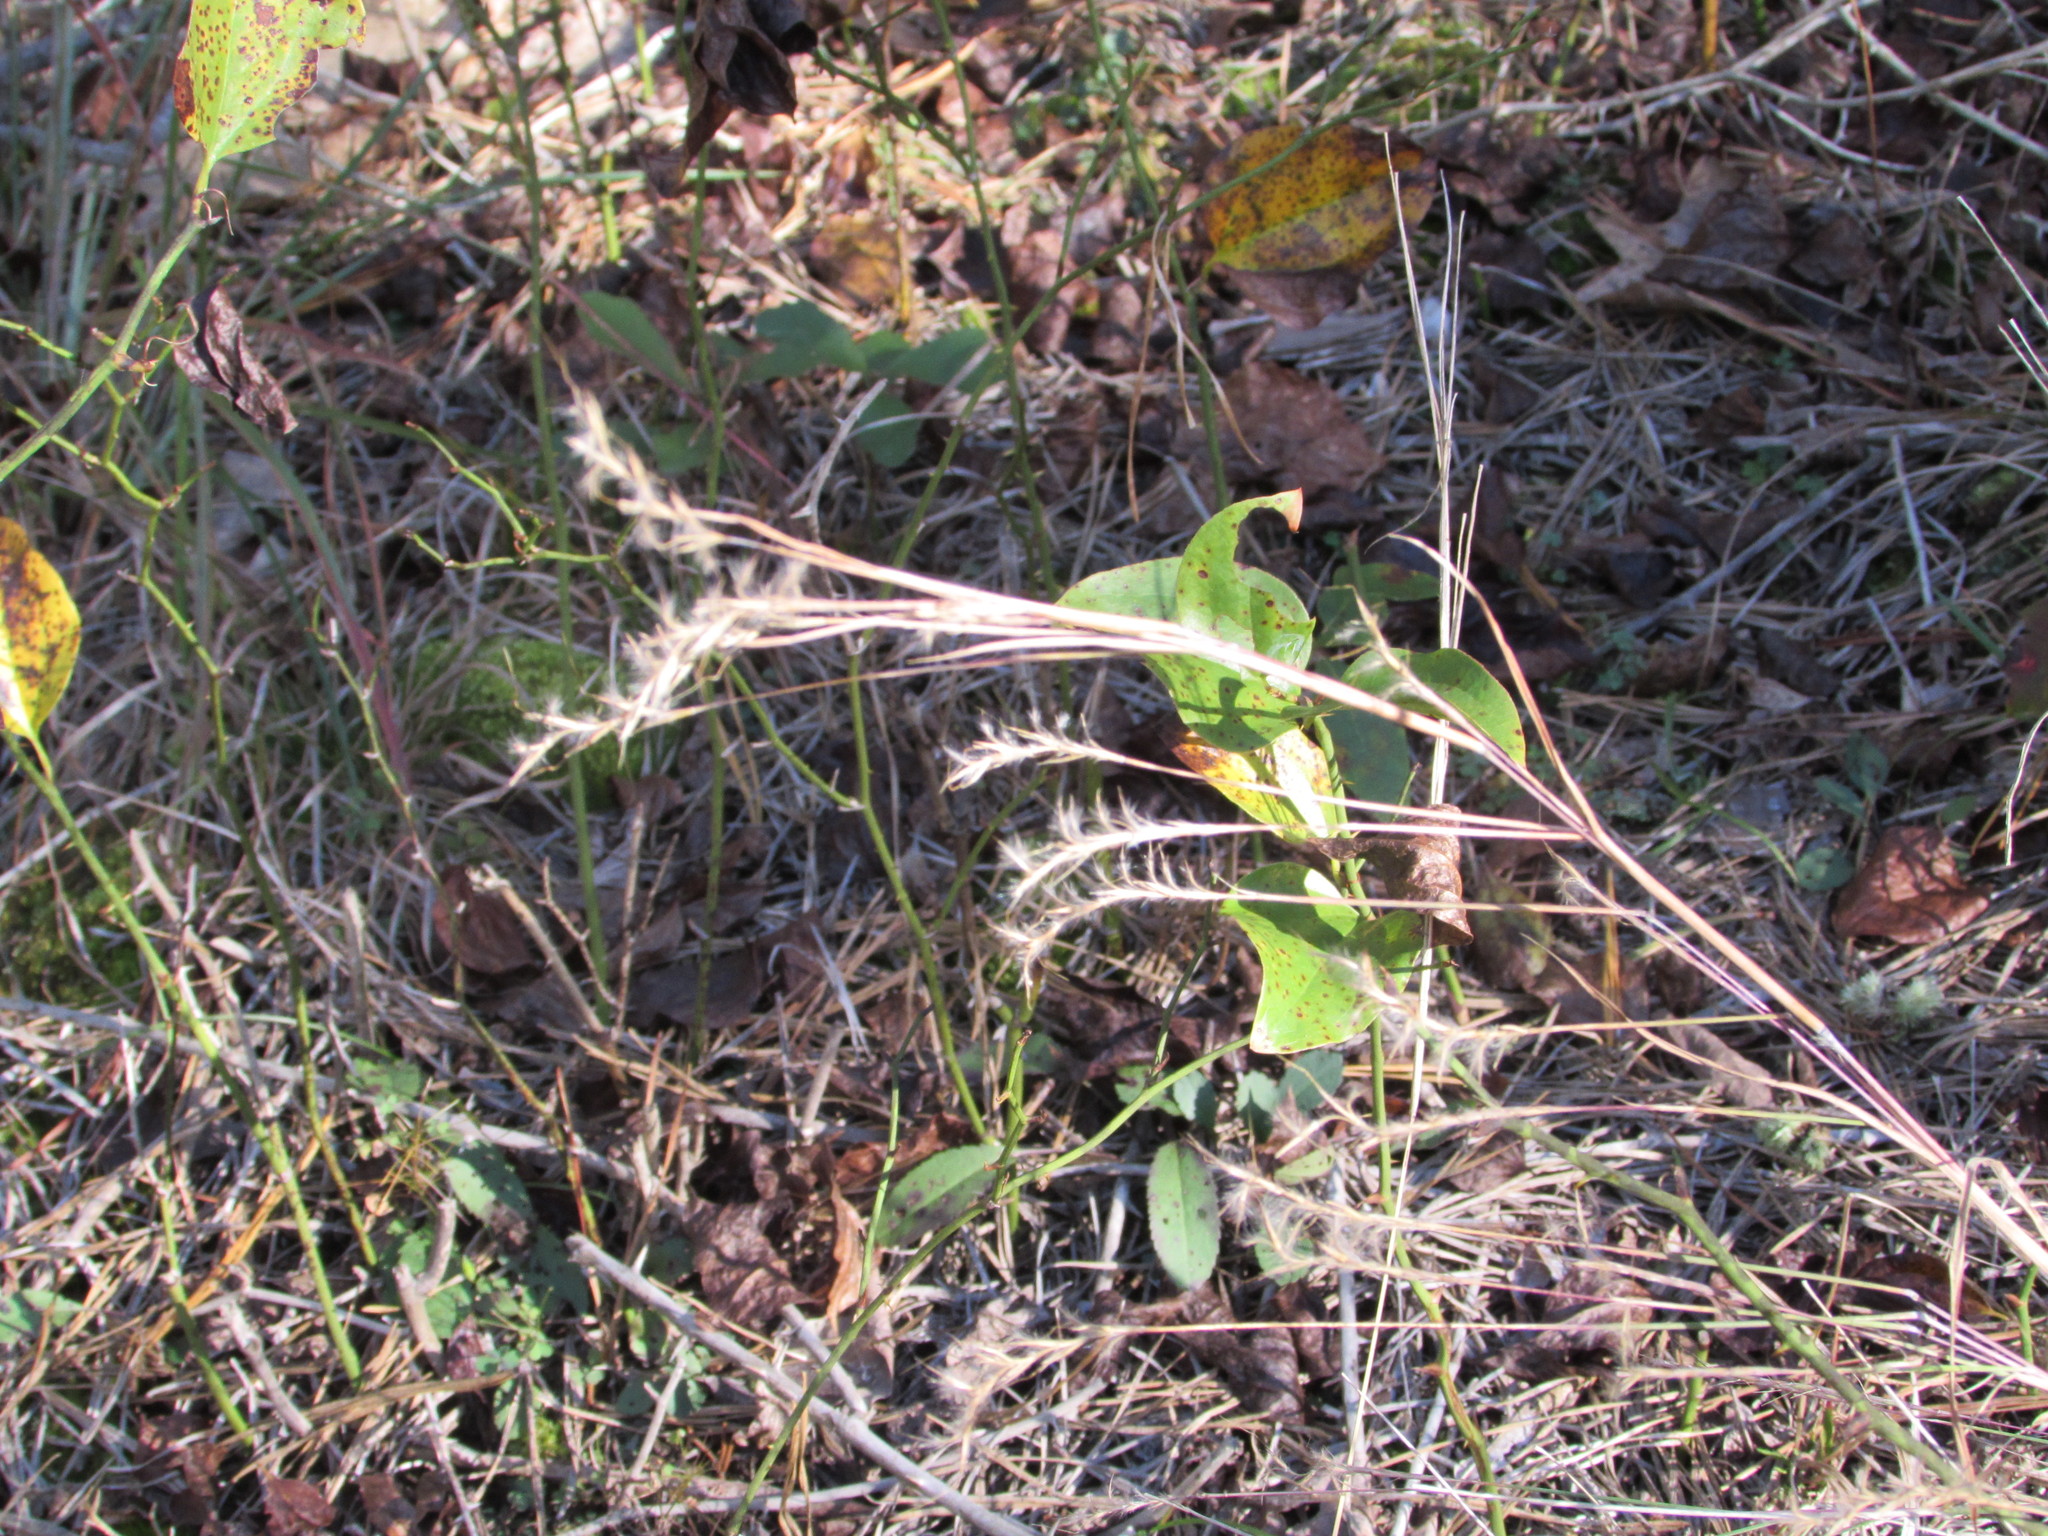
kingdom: Plantae
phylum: Tracheophyta
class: Liliopsida
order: Poales
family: Poaceae
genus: Schizachyrium
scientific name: Schizachyrium scoparium
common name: Little bluestem
